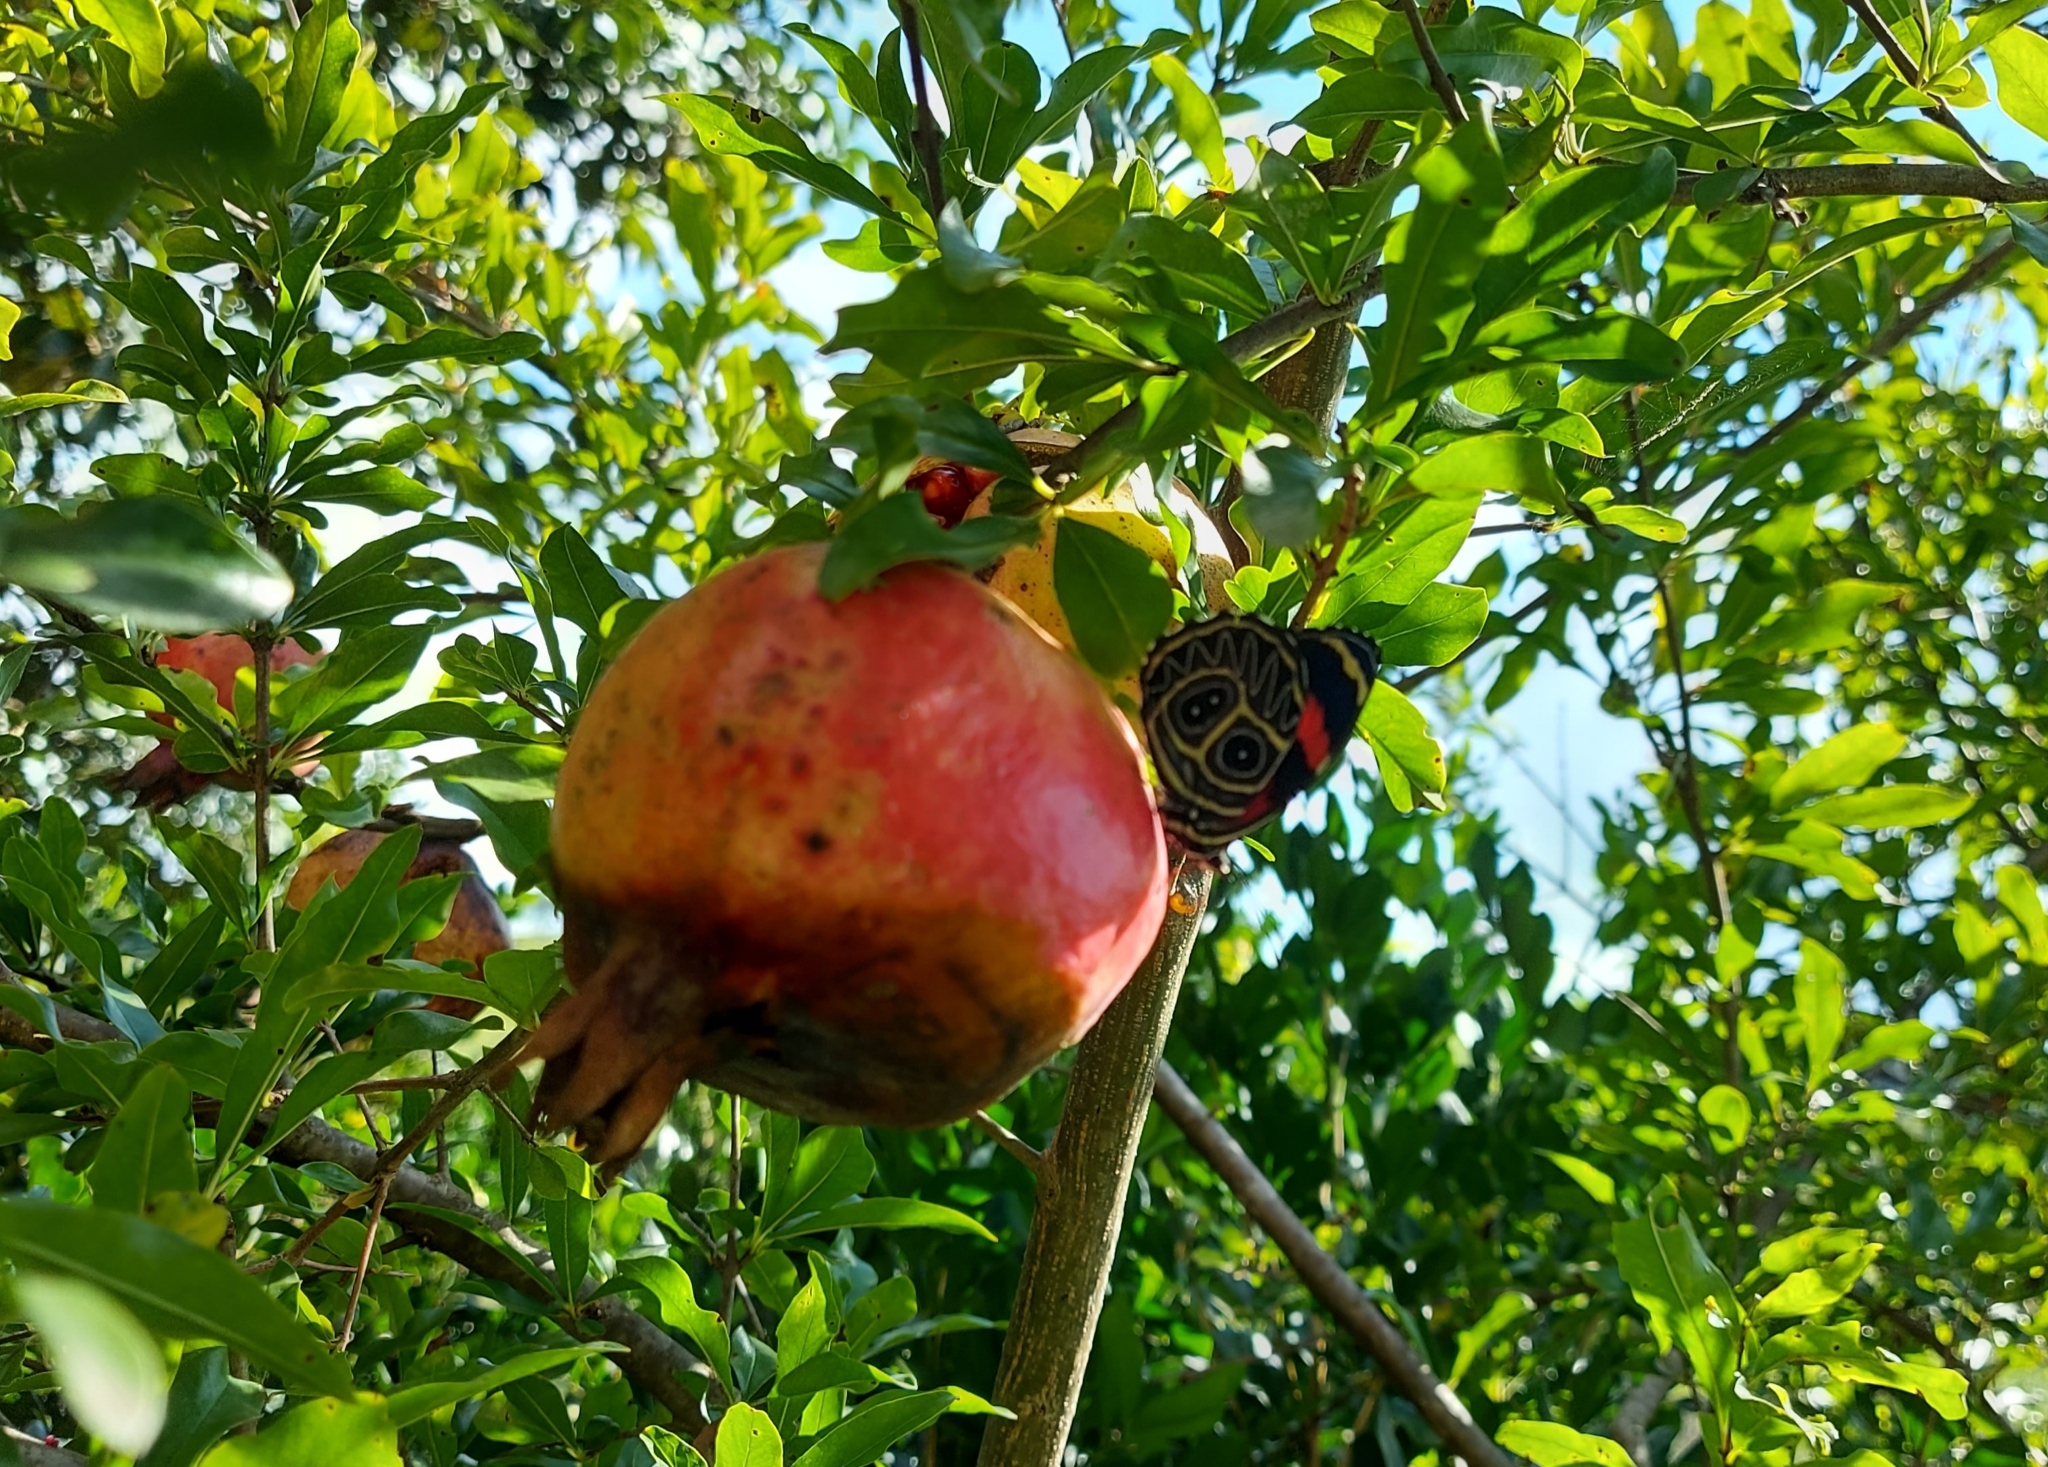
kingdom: Animalia
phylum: Arthropoda
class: Insecta
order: Lepidoptera
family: Nymphalidae
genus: Catagramma
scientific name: Catagramma Callicore sorana
